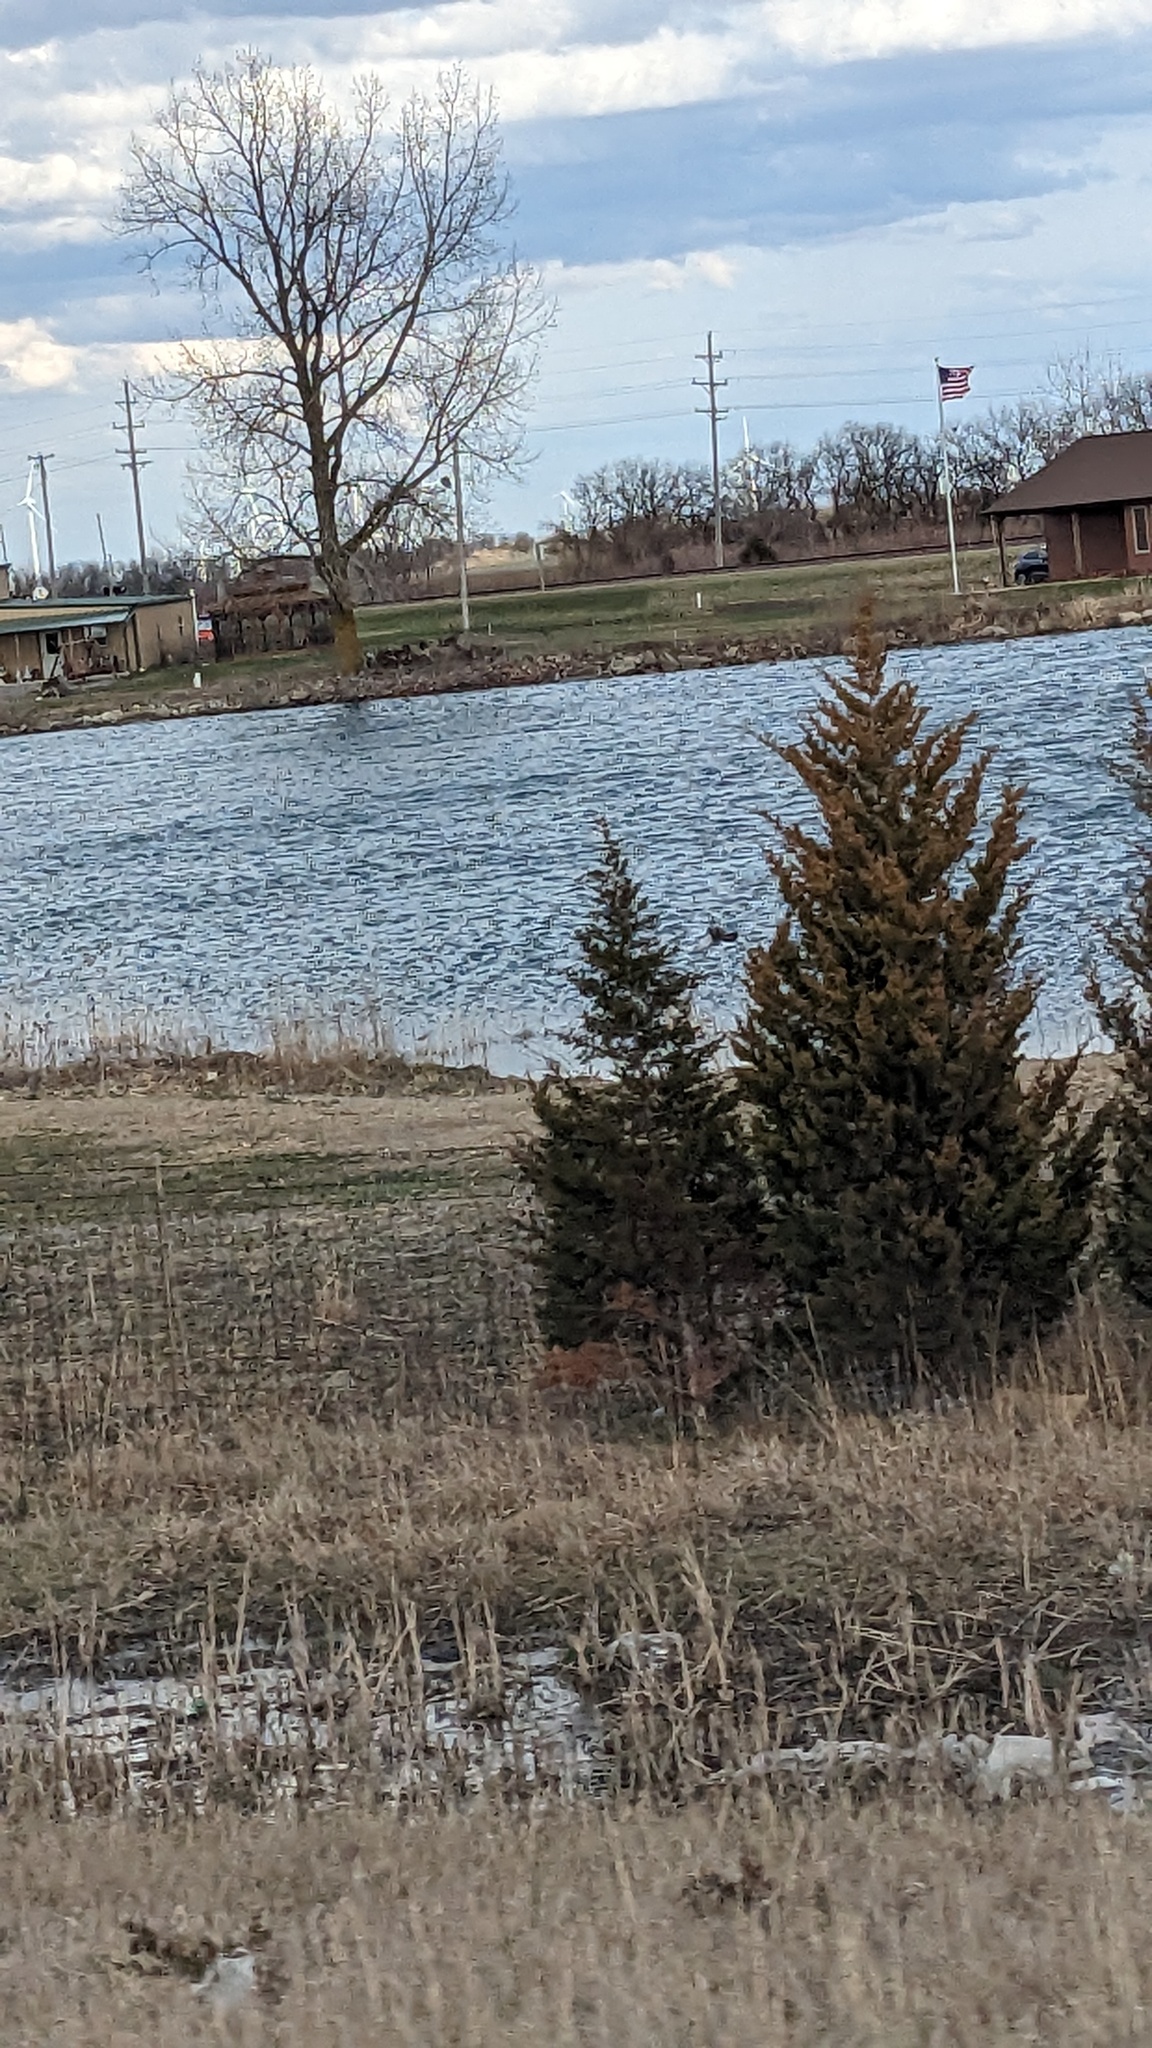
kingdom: Plantae
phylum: Tracheophyta
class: Pinopsida
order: Pinales
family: Cupressaceae
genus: Juniperus
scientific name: Juniperus virginiana
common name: Red juniper
